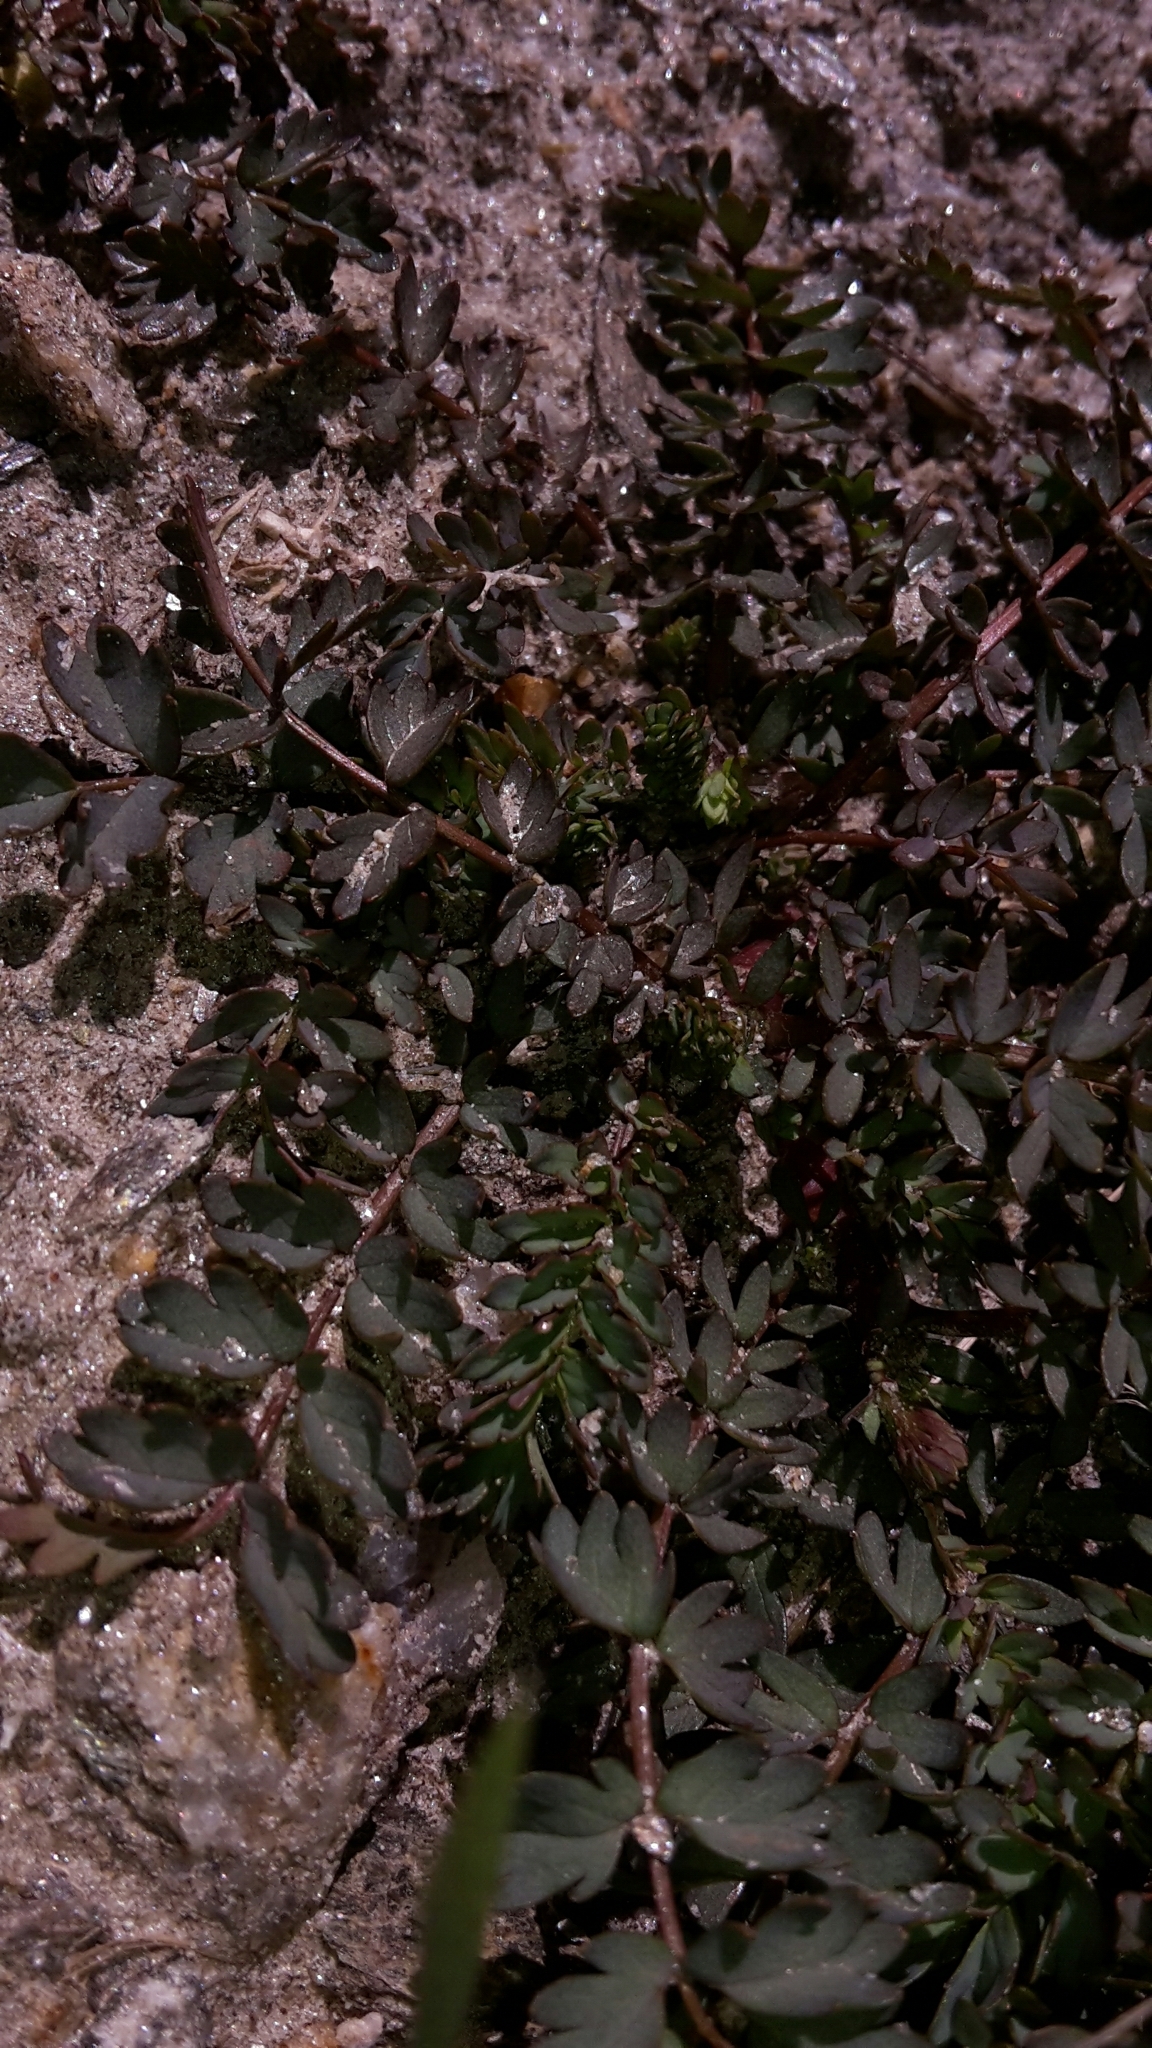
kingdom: Plantae
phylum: Tracheophyta
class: Magnoliopsida
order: Rosales
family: Rosaceae
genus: Acaena
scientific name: Acaena fissistipula
